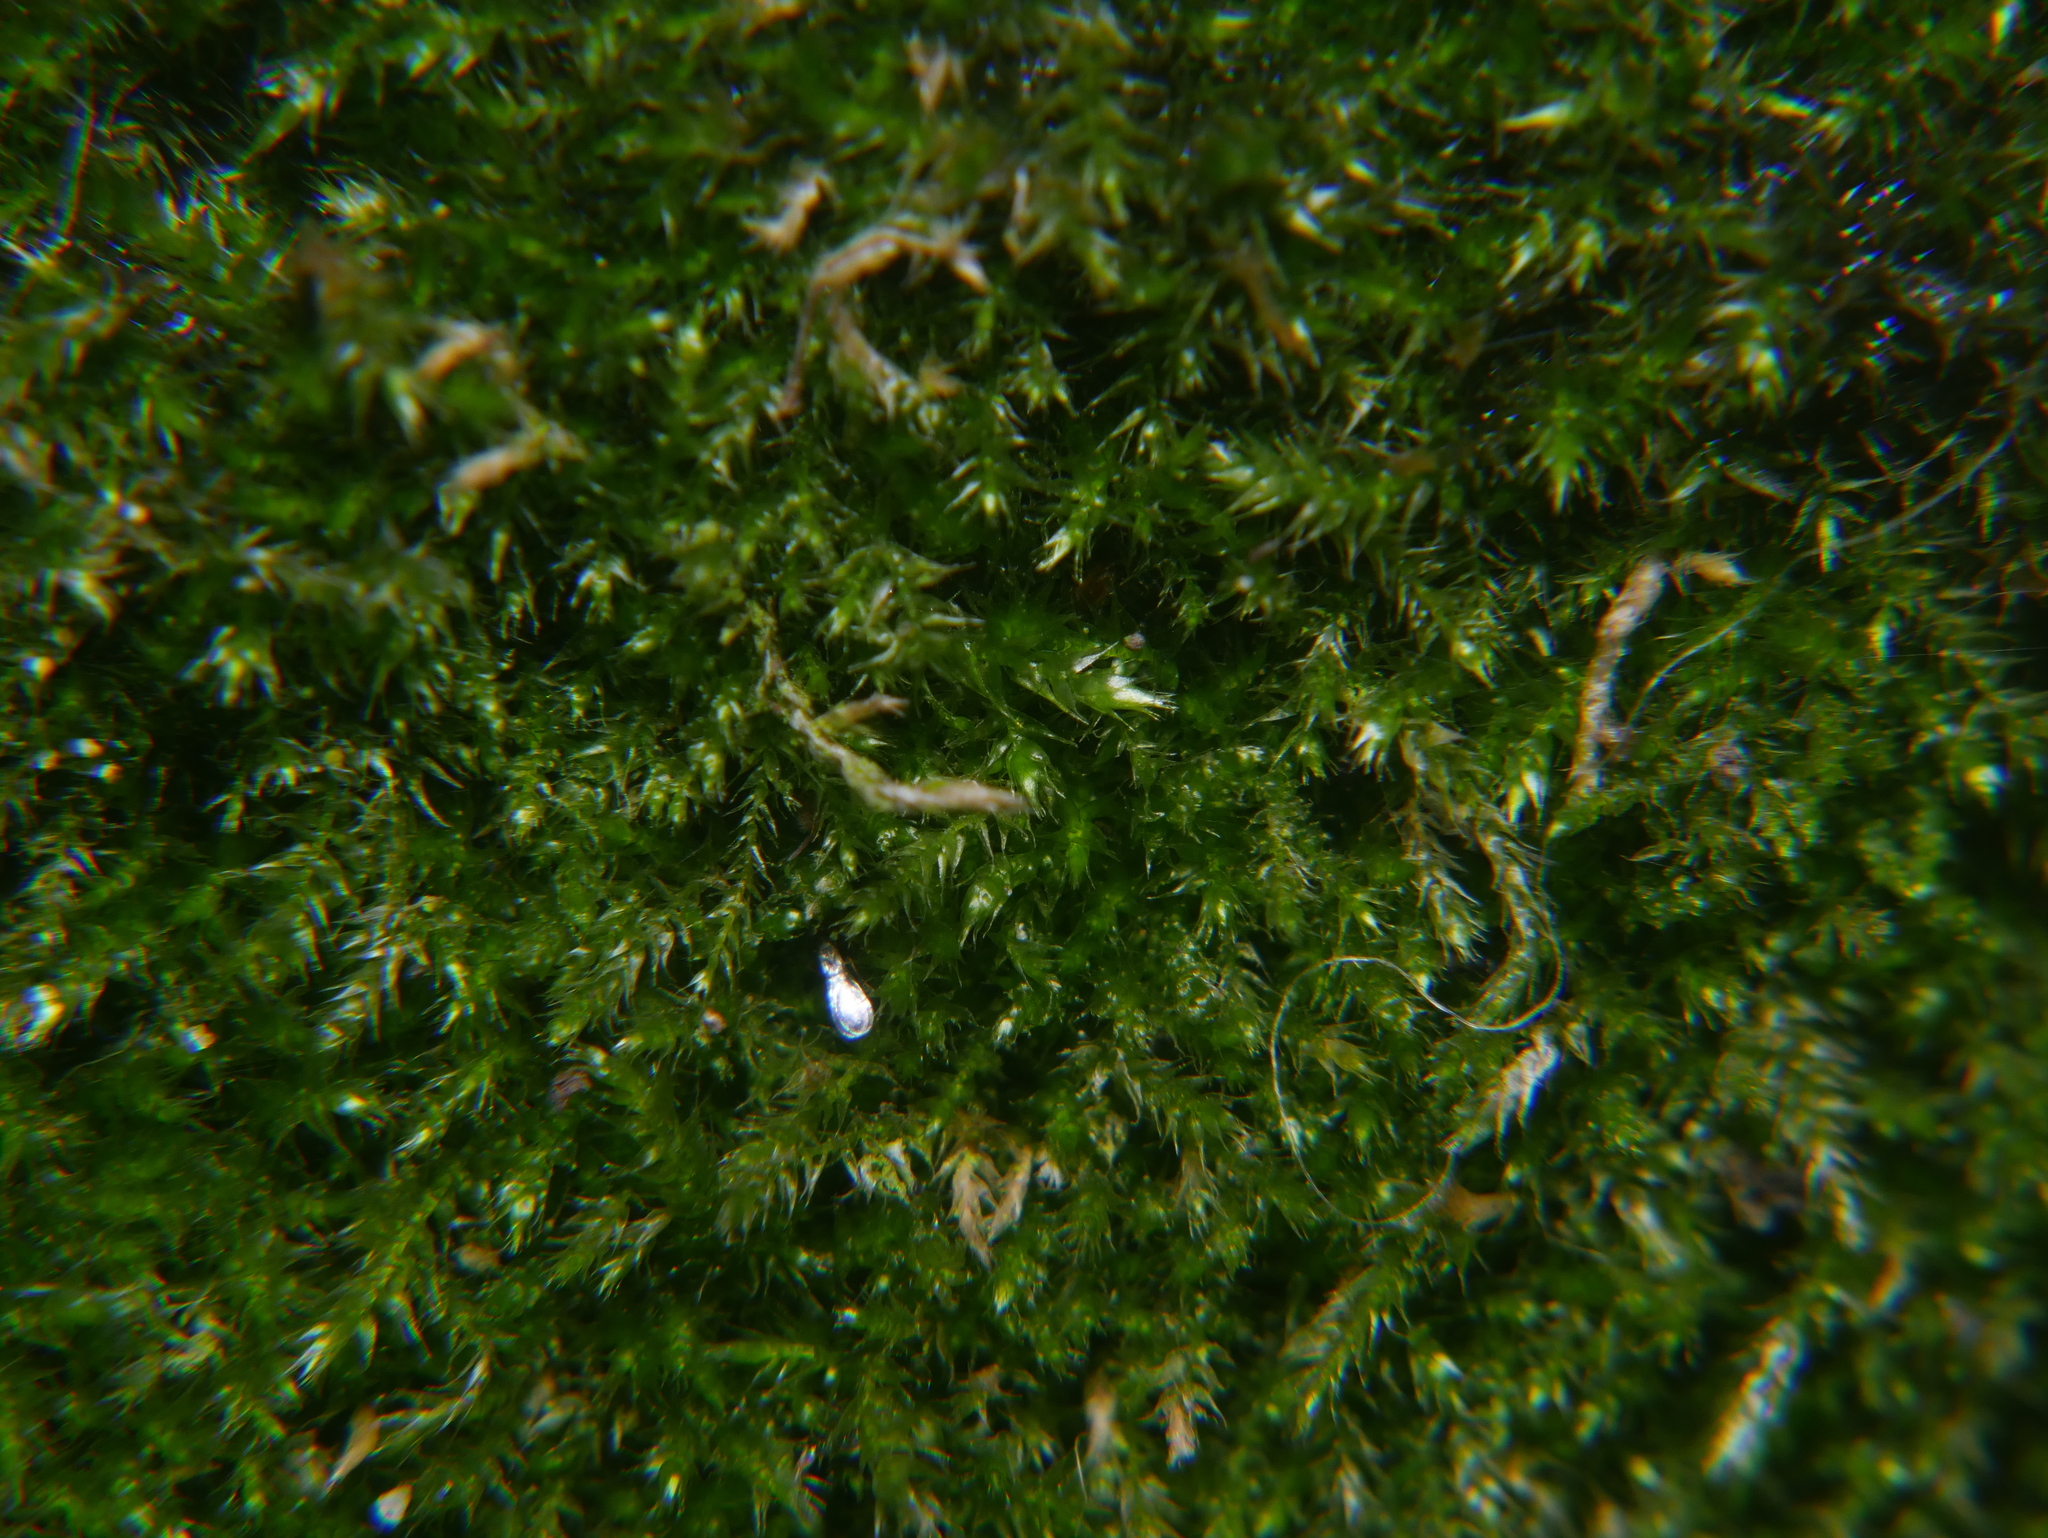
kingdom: Plantae
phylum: Bryophyta
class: Bryopsida
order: Hypnales
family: Hypnaceae
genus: Hypnum
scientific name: Hypnum resupinatum
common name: Supine plait-moss
